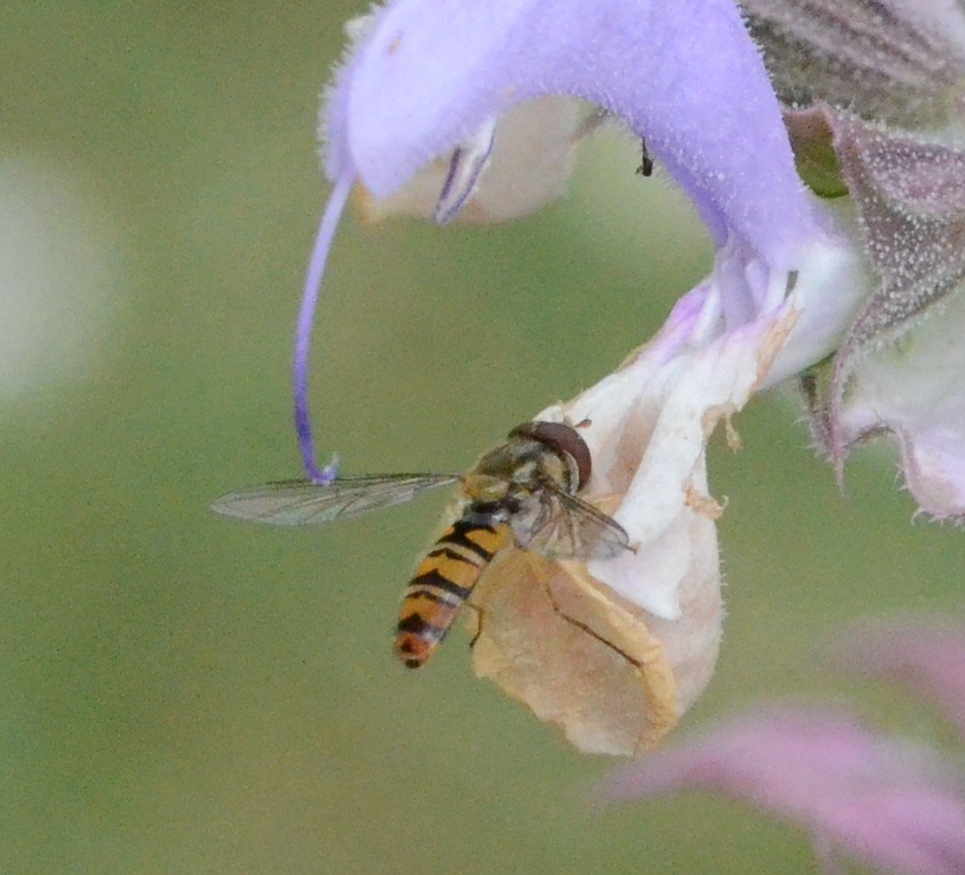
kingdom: Animalia
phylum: Arthropoda
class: Insecta
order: Diptera
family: Syrphidae
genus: Episyrphus
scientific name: Episyrphus balteatus
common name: Marmalade hoverfly
